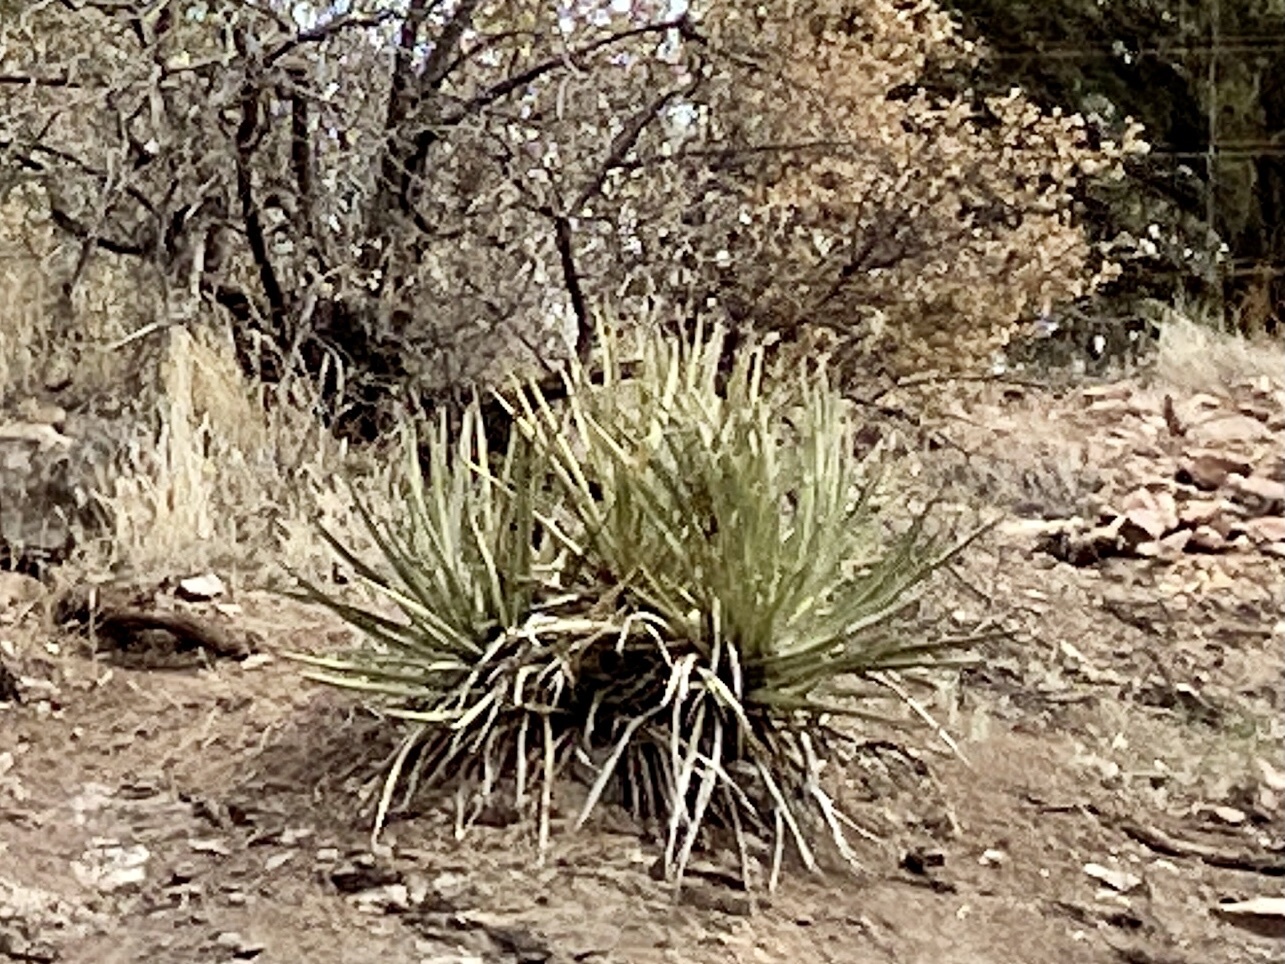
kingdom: Plantae
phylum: Tracheophyta
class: Liliopsida
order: Asparagales
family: Asparagaceae
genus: Yucca
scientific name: Yucca baccata
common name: Banana yucca
